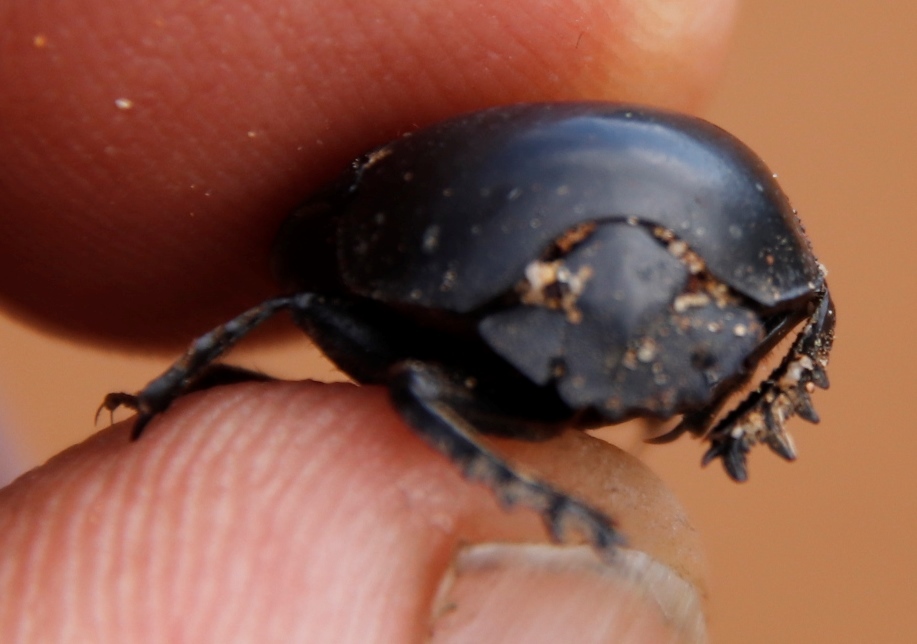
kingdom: Animalia
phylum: Arthropoda
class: Insecta
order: Coleoptera
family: Scarabaeidae
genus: Scarabaeus
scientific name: Scarabaeus convexus
